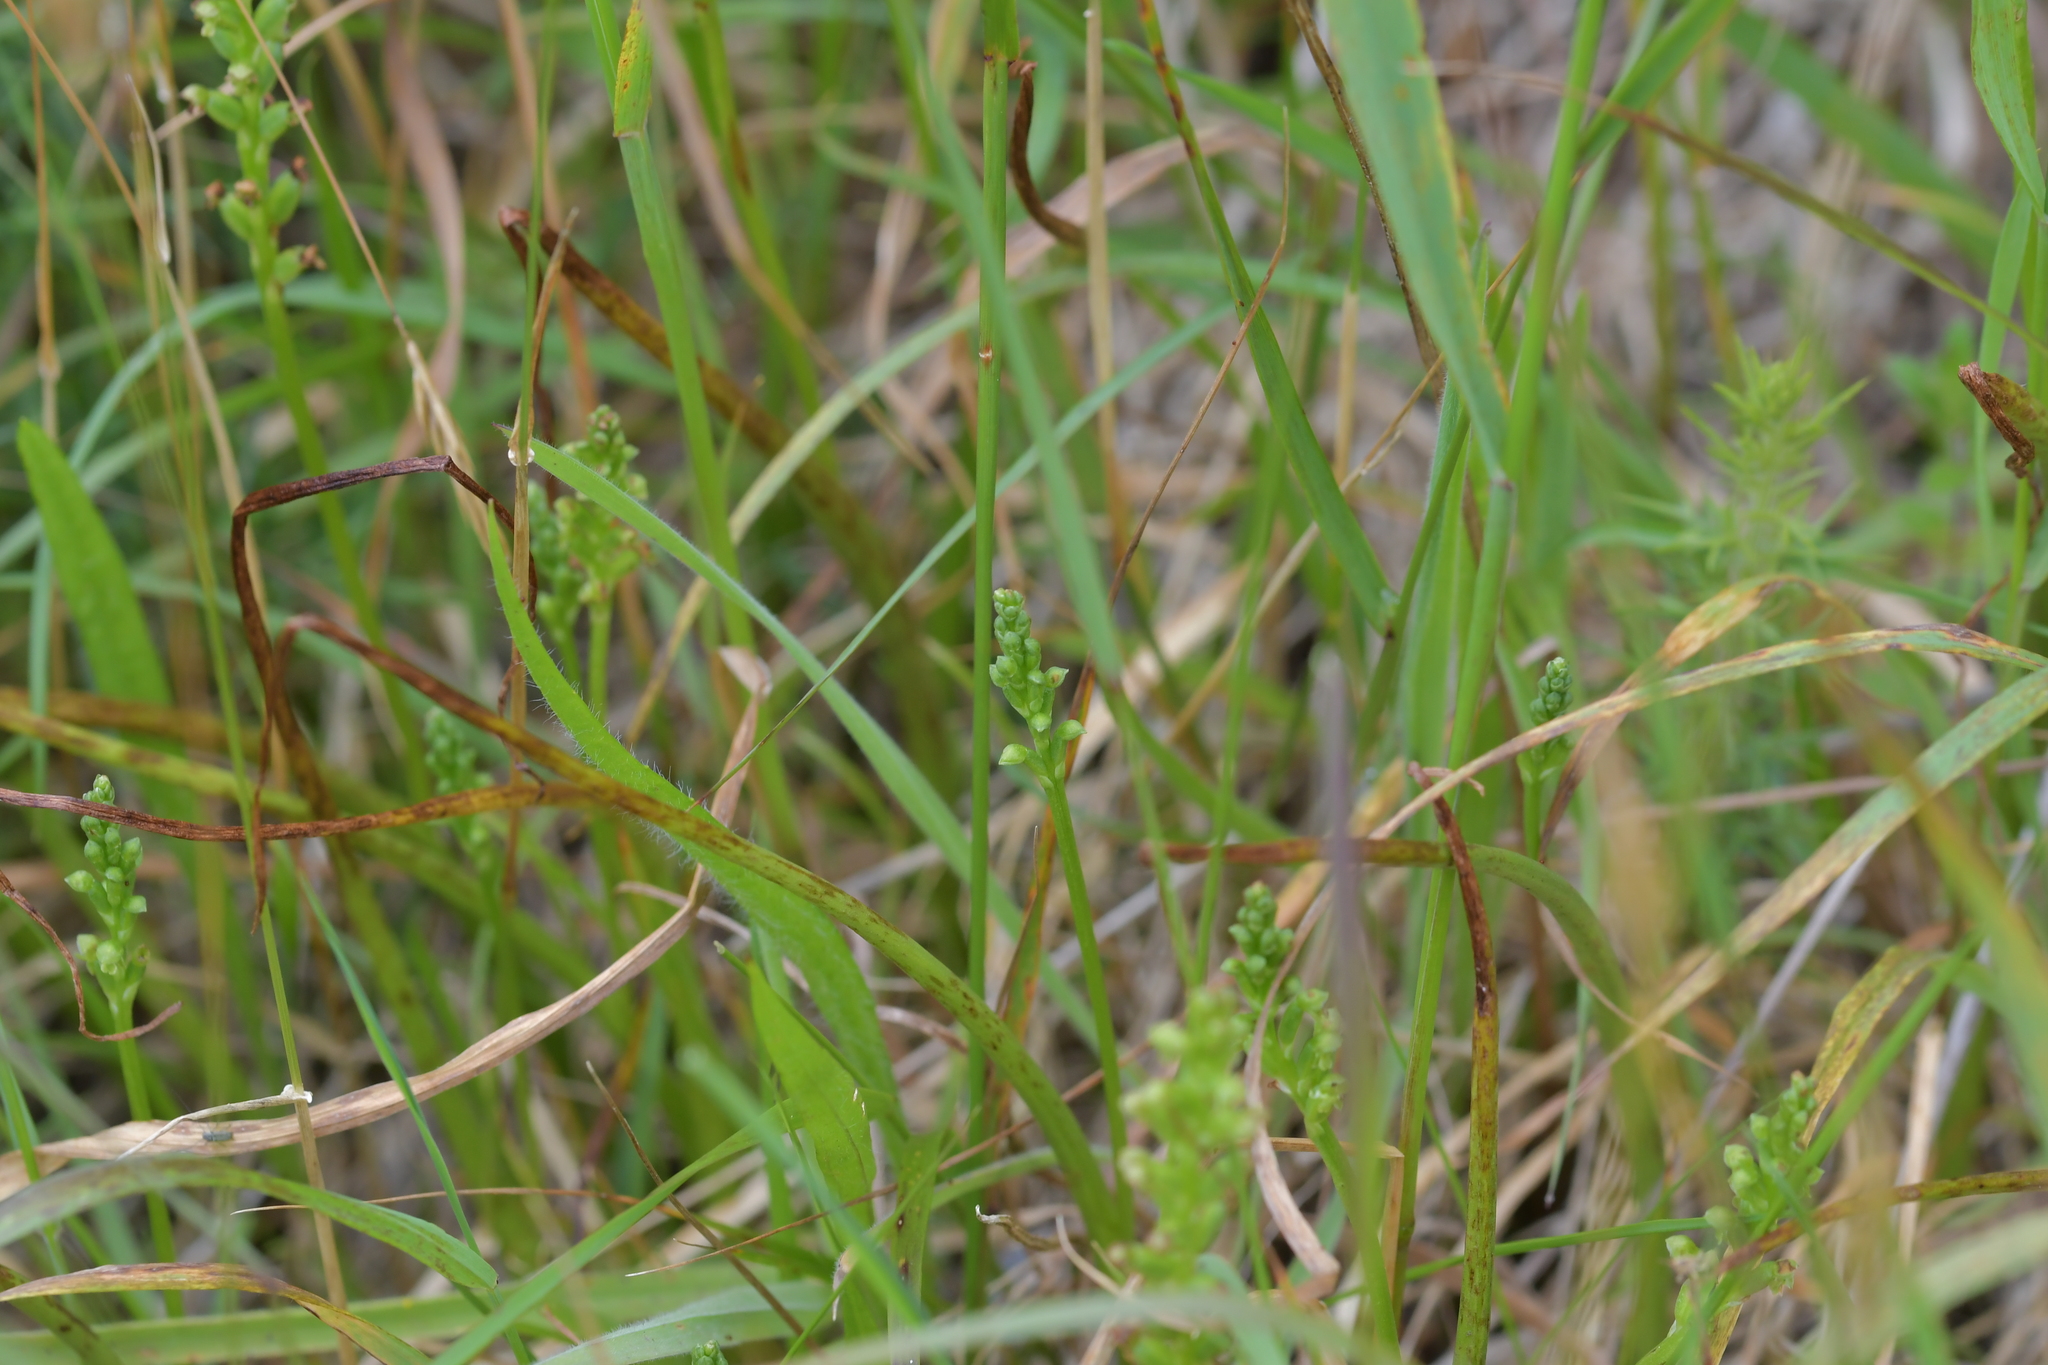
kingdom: Plantae
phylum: Tracheophyta
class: Liliopsida
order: Asparagales
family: Orchidaceae
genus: Microtis
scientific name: Microtis unifolia
